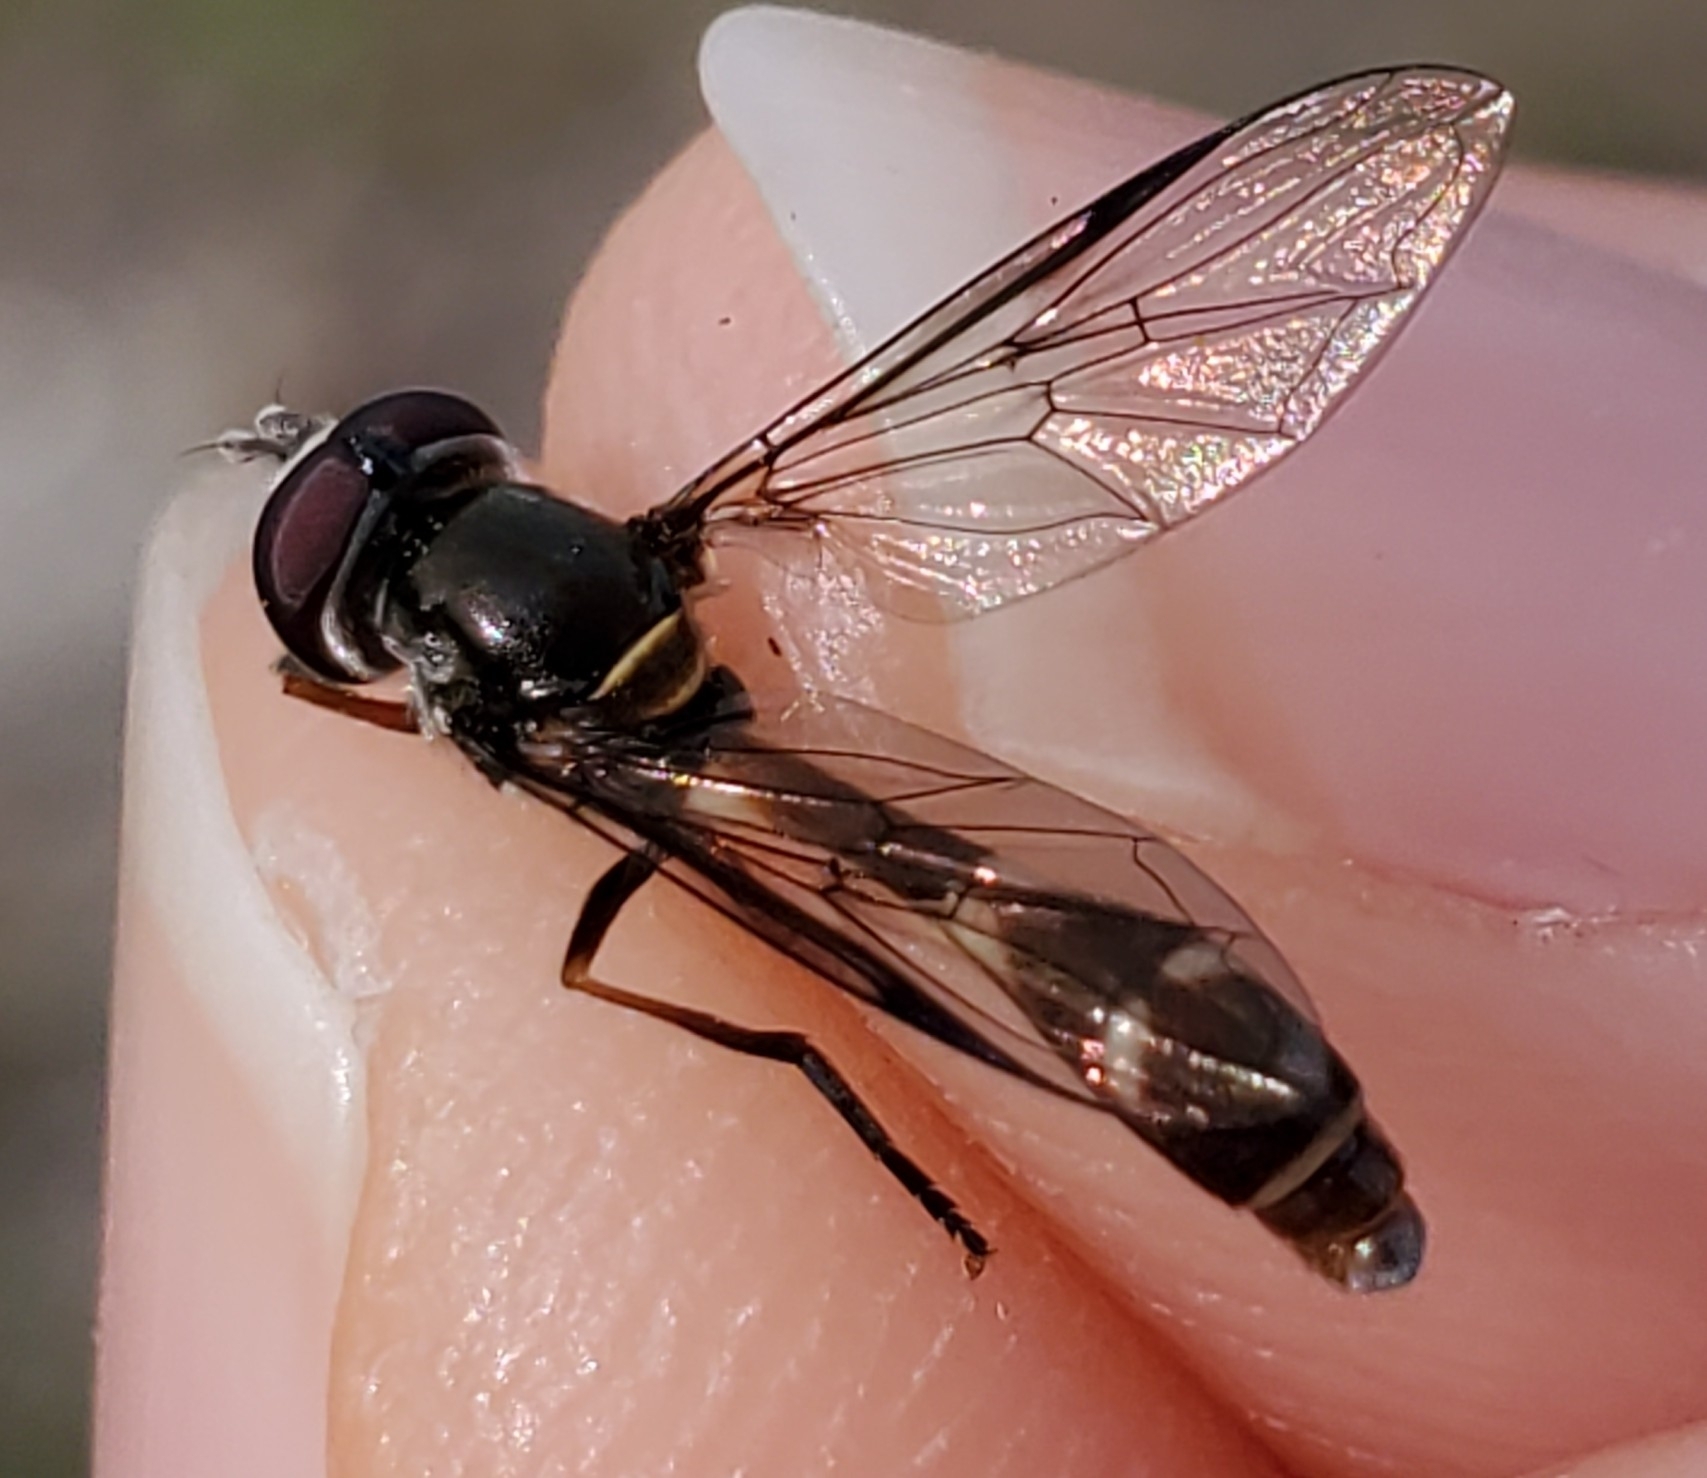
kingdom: Animalia
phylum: Arthropoda
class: Insecta
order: Diptera
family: Syrphidae
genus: Dioprosopa
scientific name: Dioprosopa clavatus
